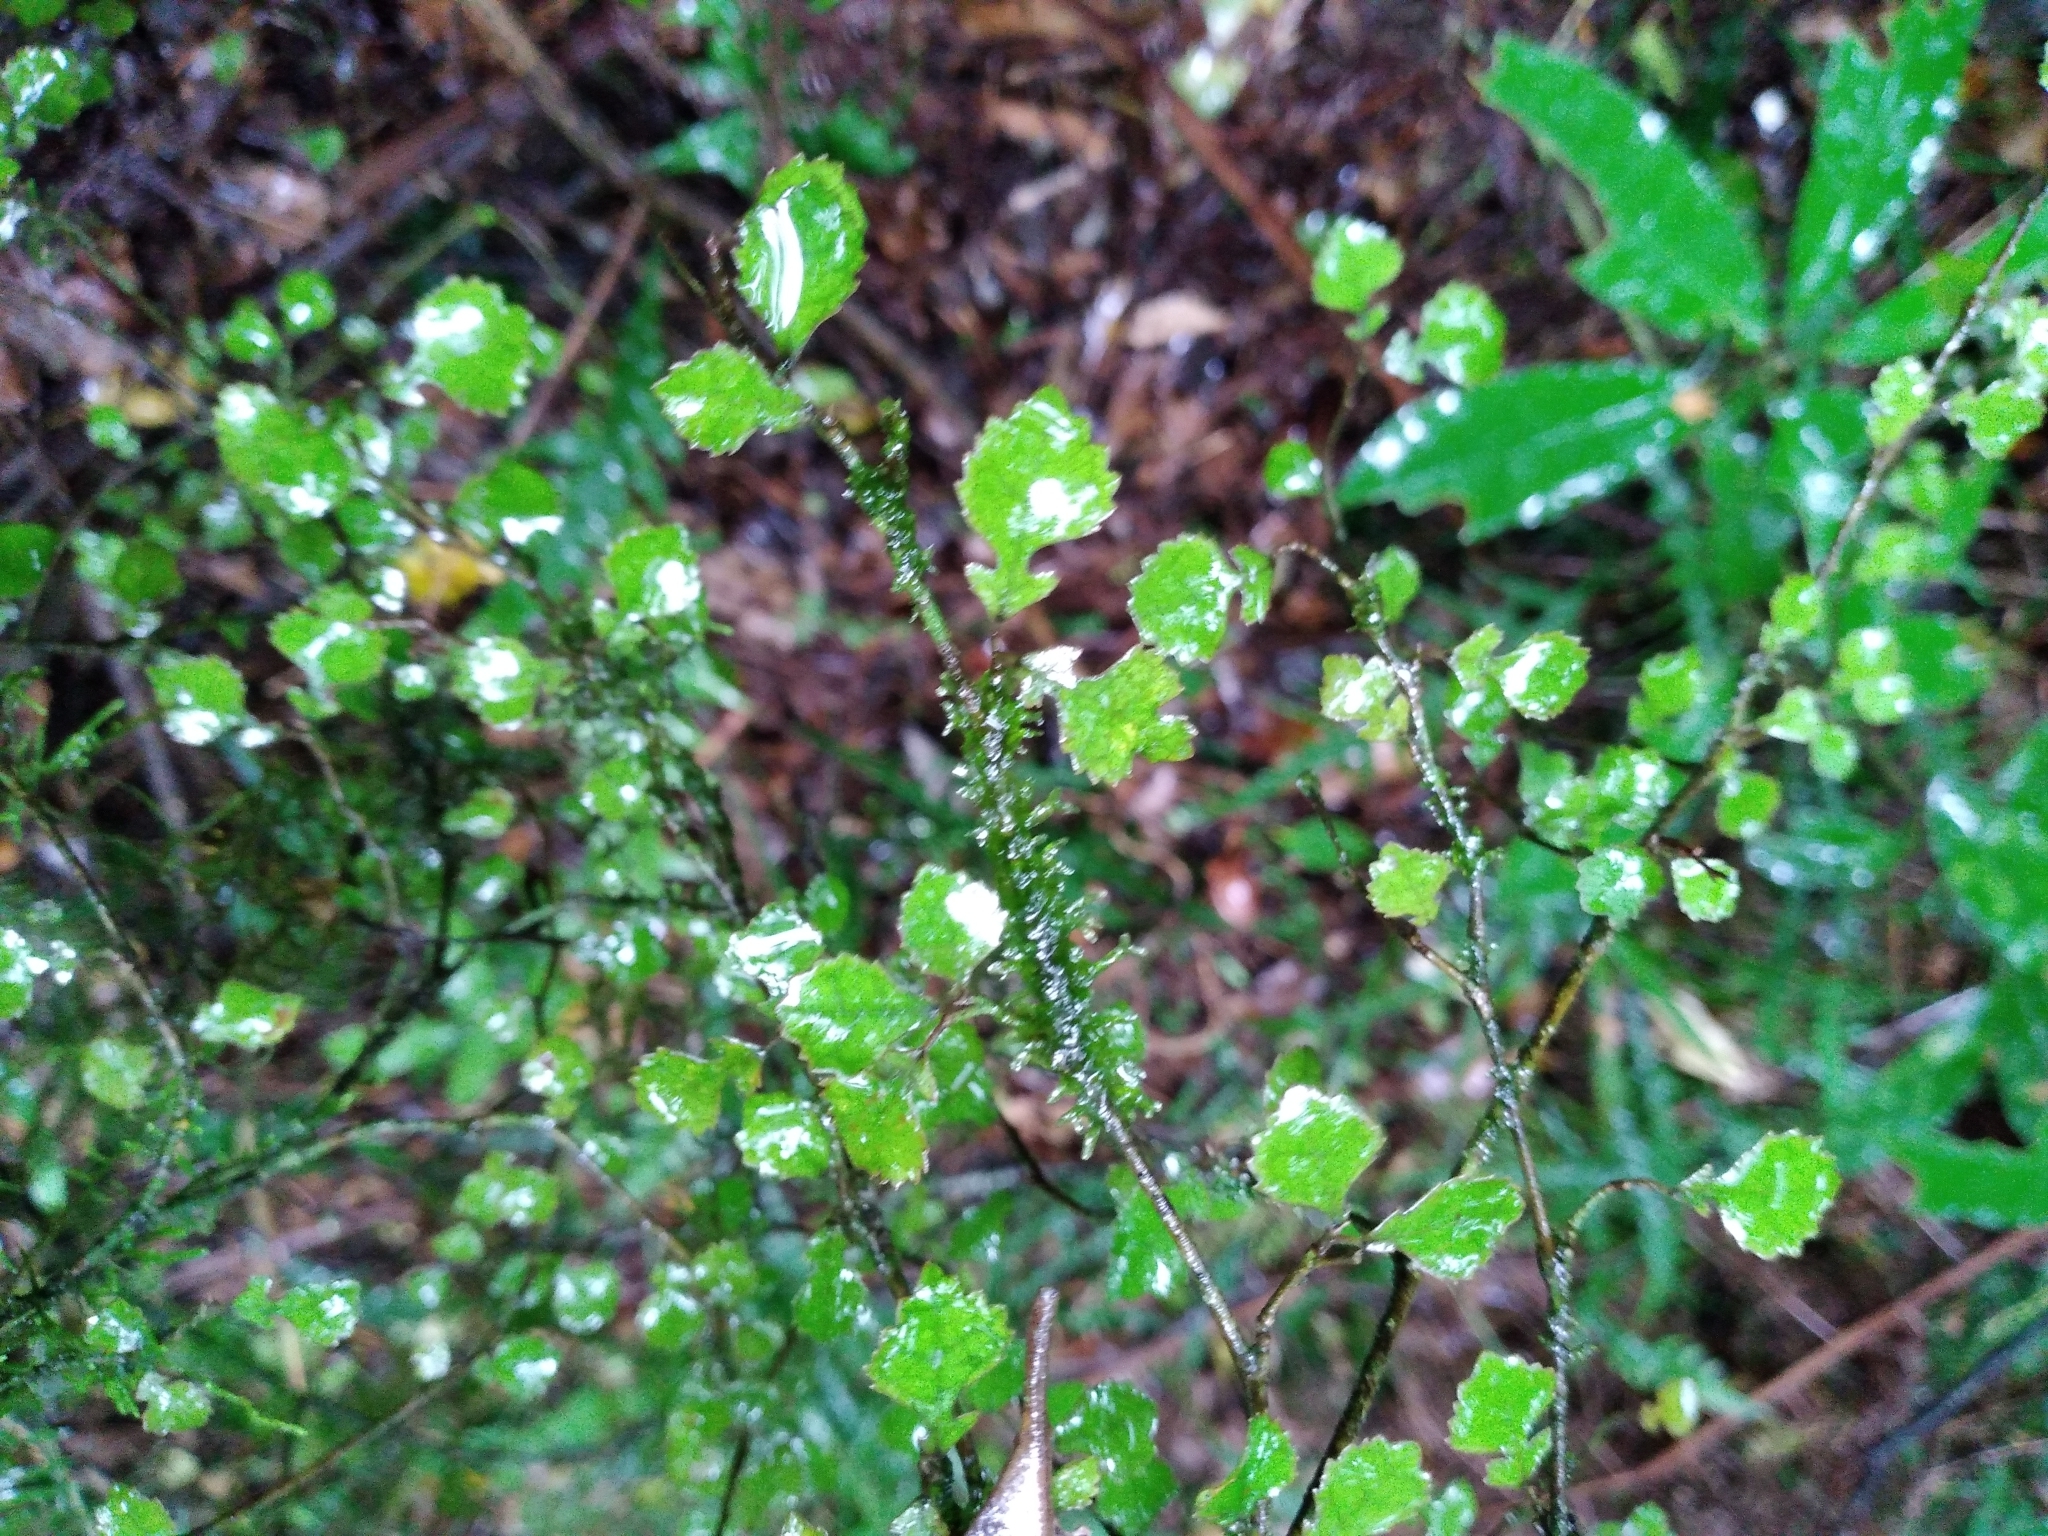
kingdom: Plantae
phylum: Tracheophyta
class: Magnoliopsida
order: Rosales
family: Moraceae
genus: Paratrophis
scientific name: Paratrophis microphylla
